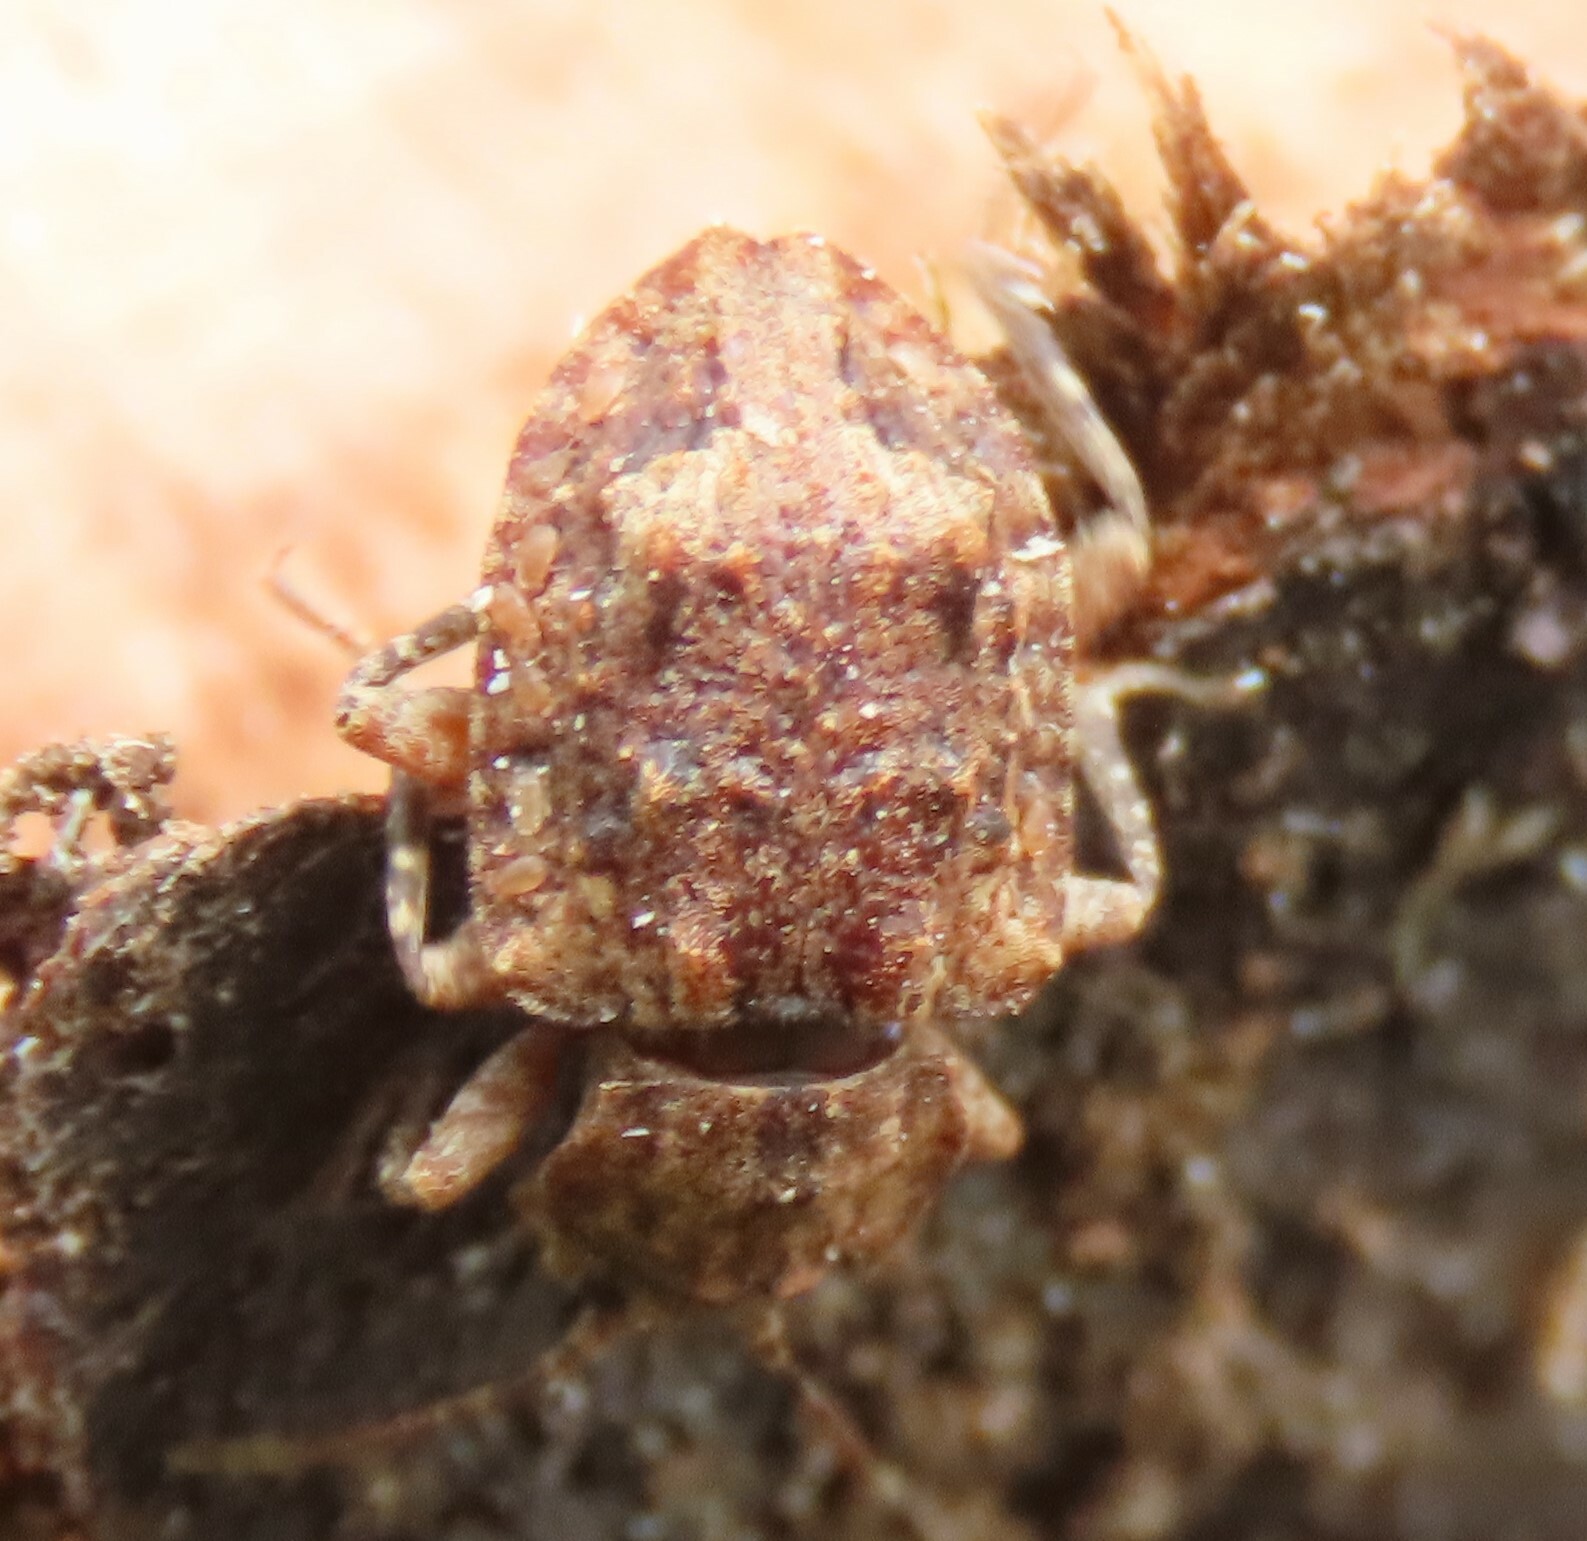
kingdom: Animalia
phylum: Arthropoda
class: Insecta
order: Coleoptera
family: Ulodidae
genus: Syrphetodes
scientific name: Syrphetodes marginatus
